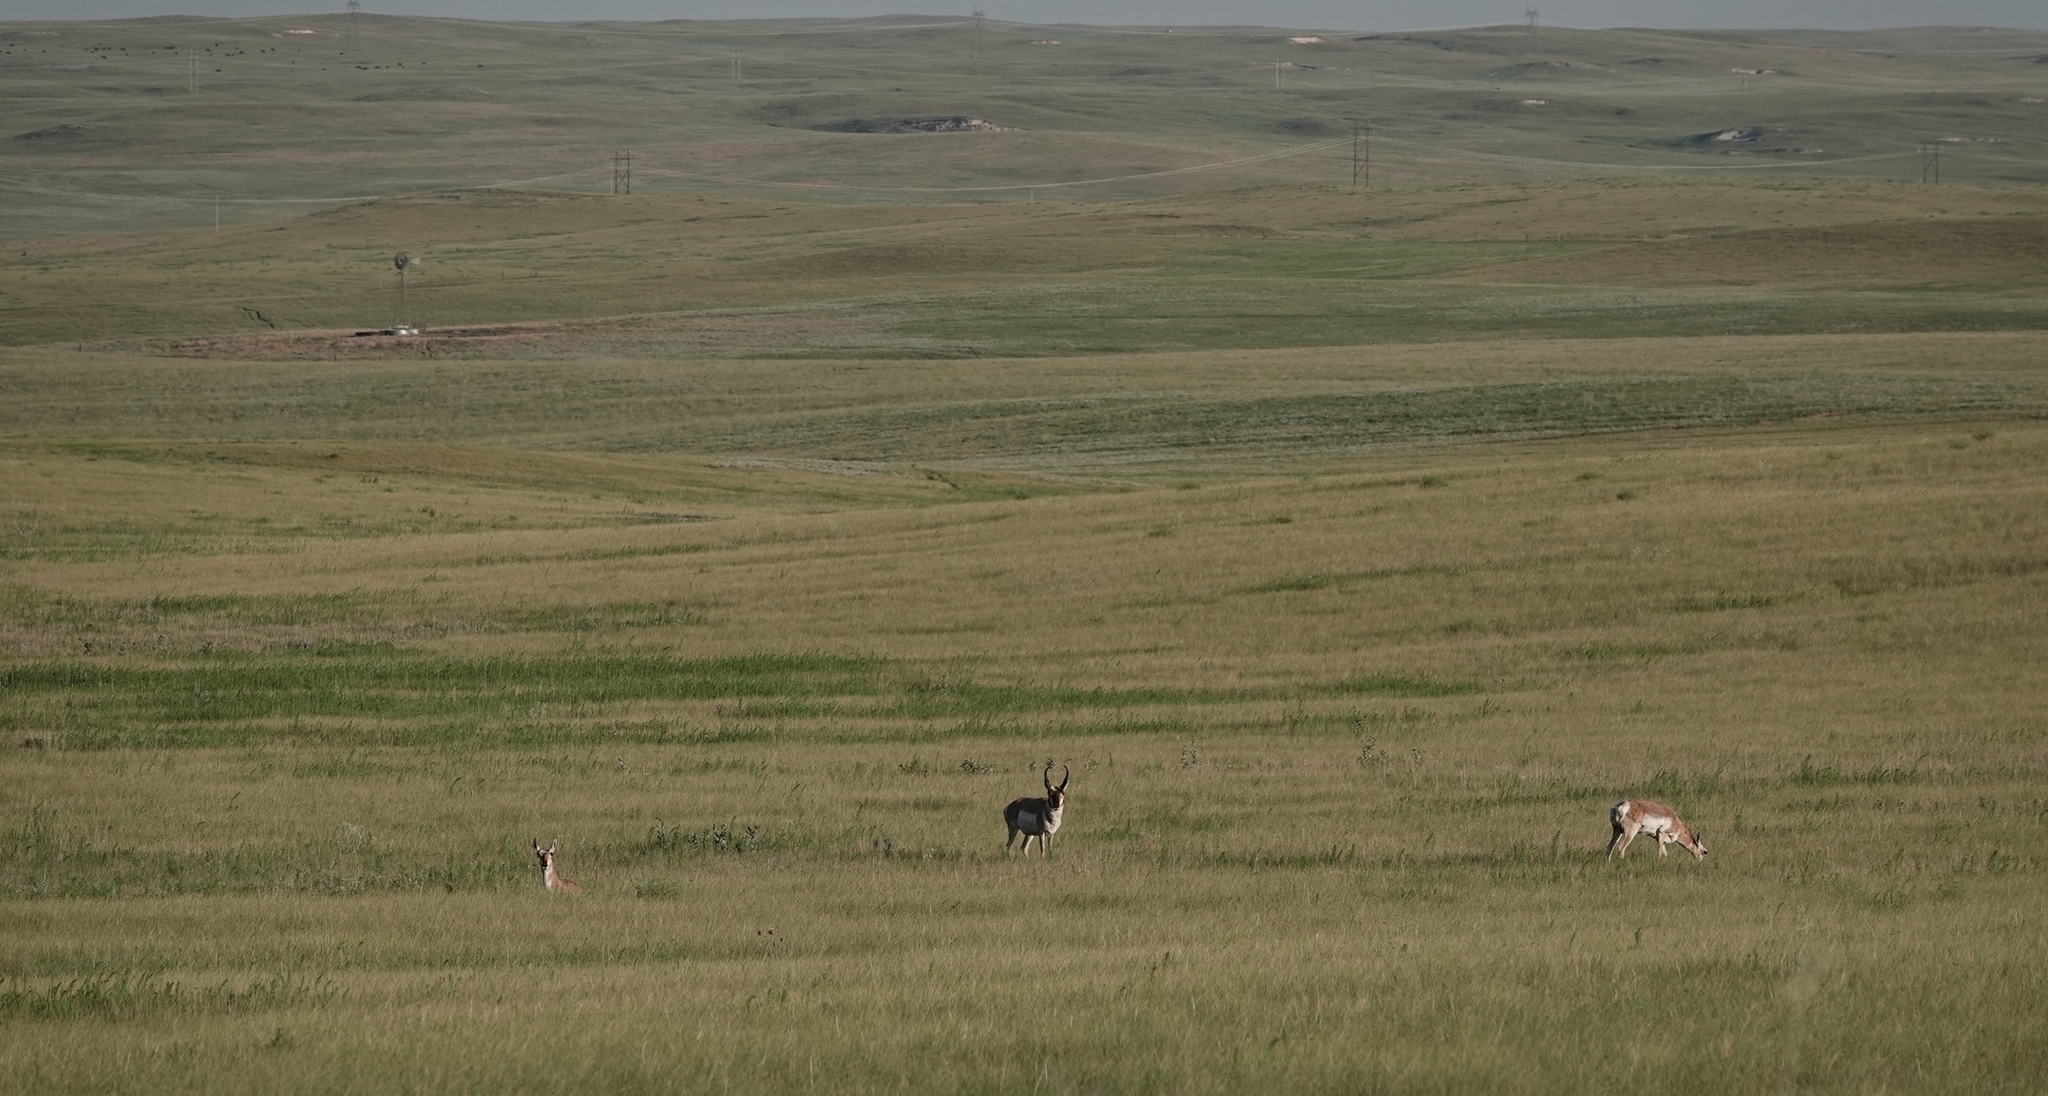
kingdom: Animalia
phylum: Chordata
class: Mammalia
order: Artiodactyla
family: Antilocapridae
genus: Antilocapra
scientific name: Antilocapra americana
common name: Pronghorn
